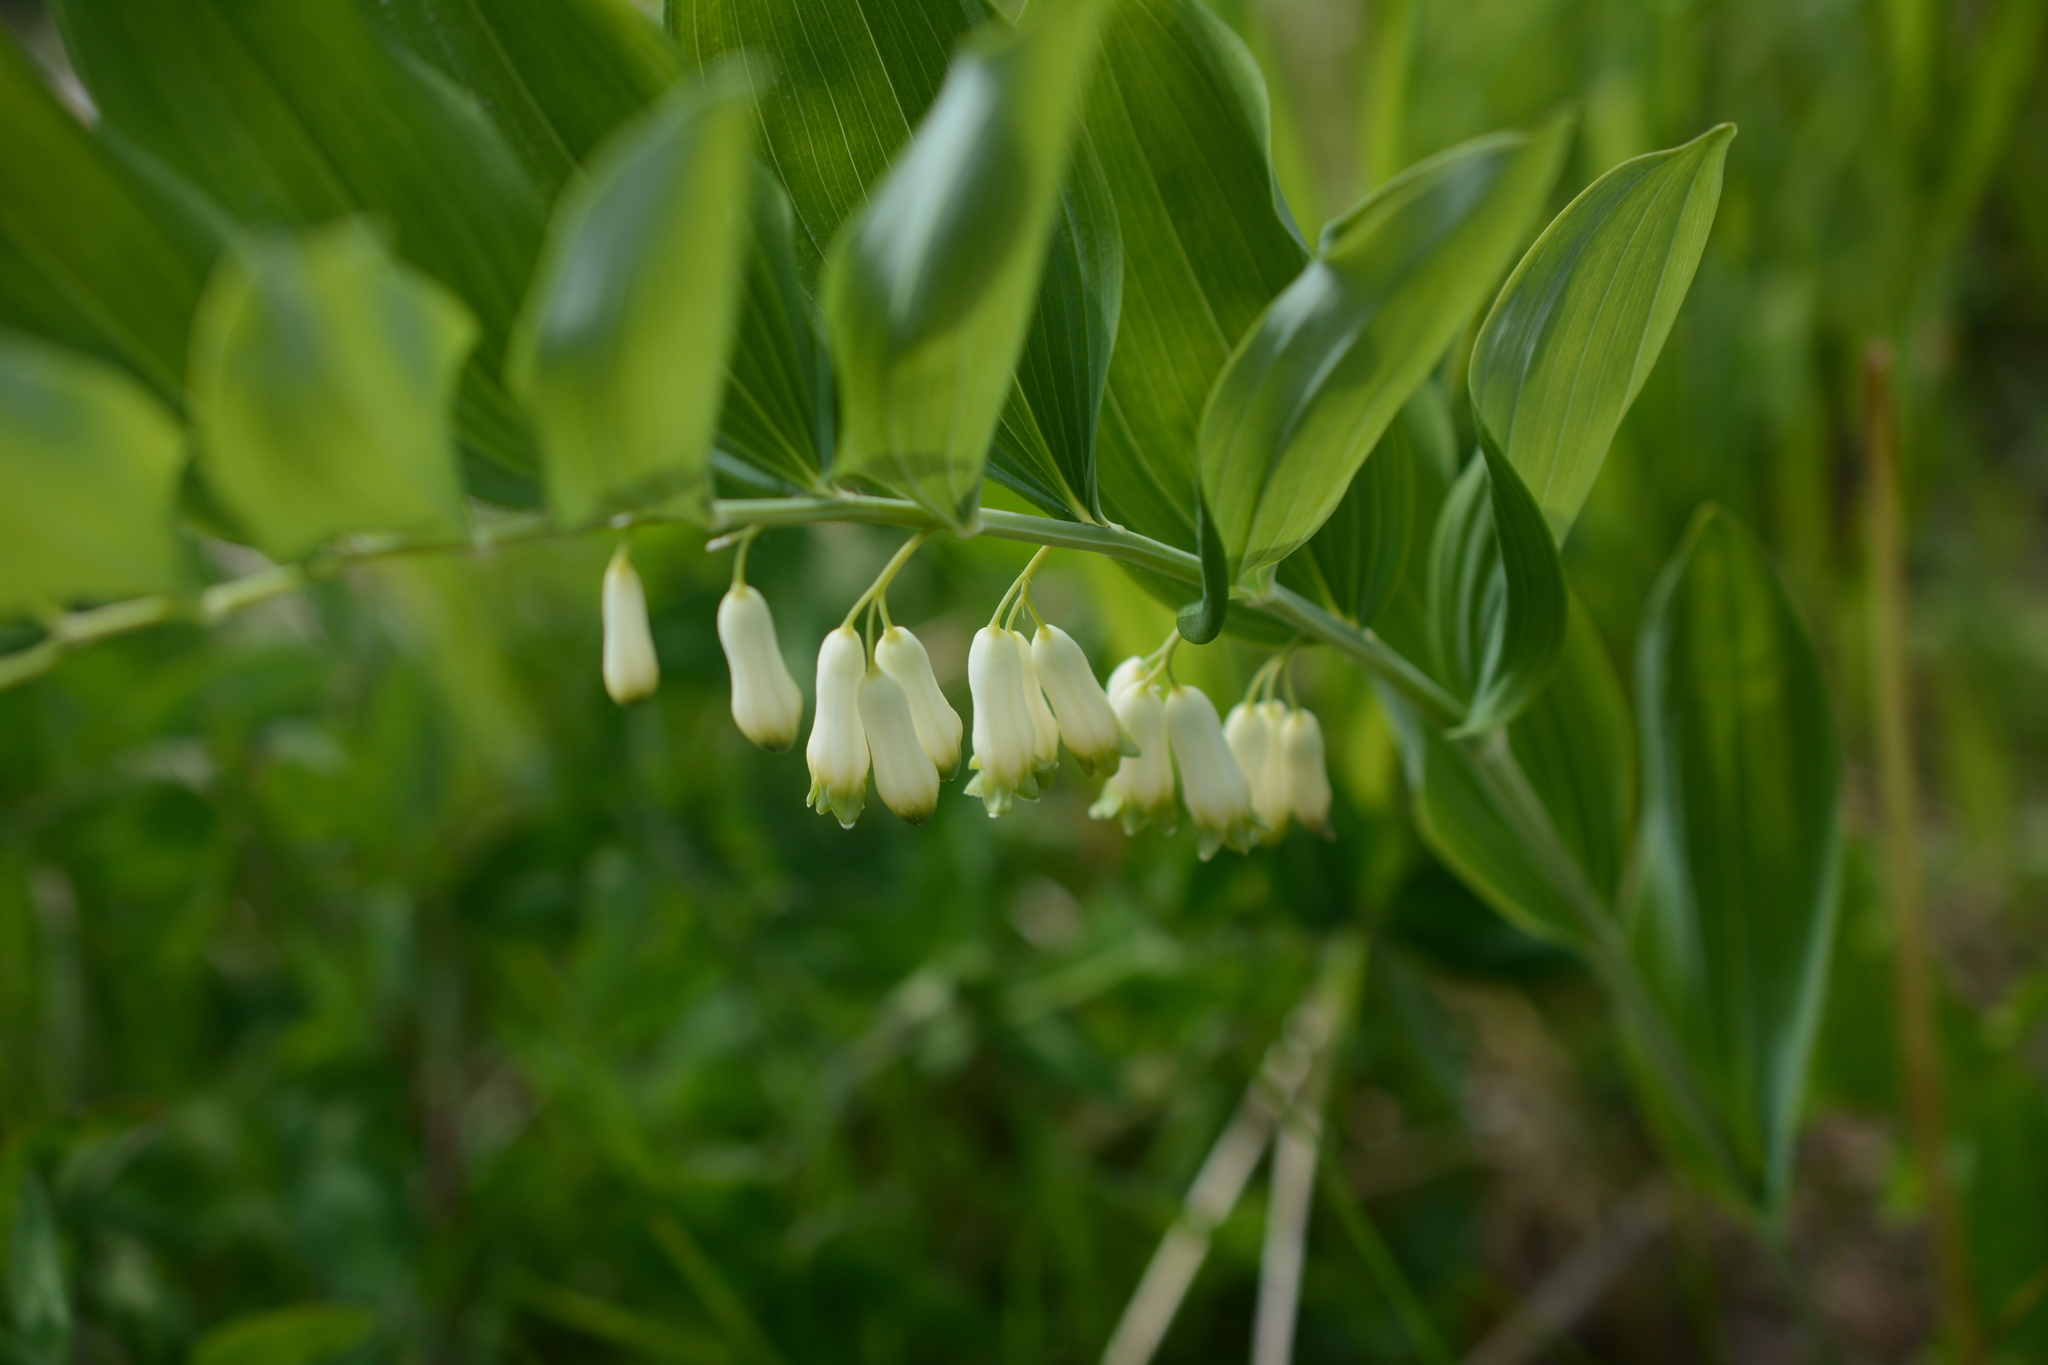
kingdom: Plantae
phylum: Tracheophyta
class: Liliopsida
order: Asparagales
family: Asparagaceae
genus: Polygonatum
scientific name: Polygonatum multiflorum
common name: Solomon's-seal
